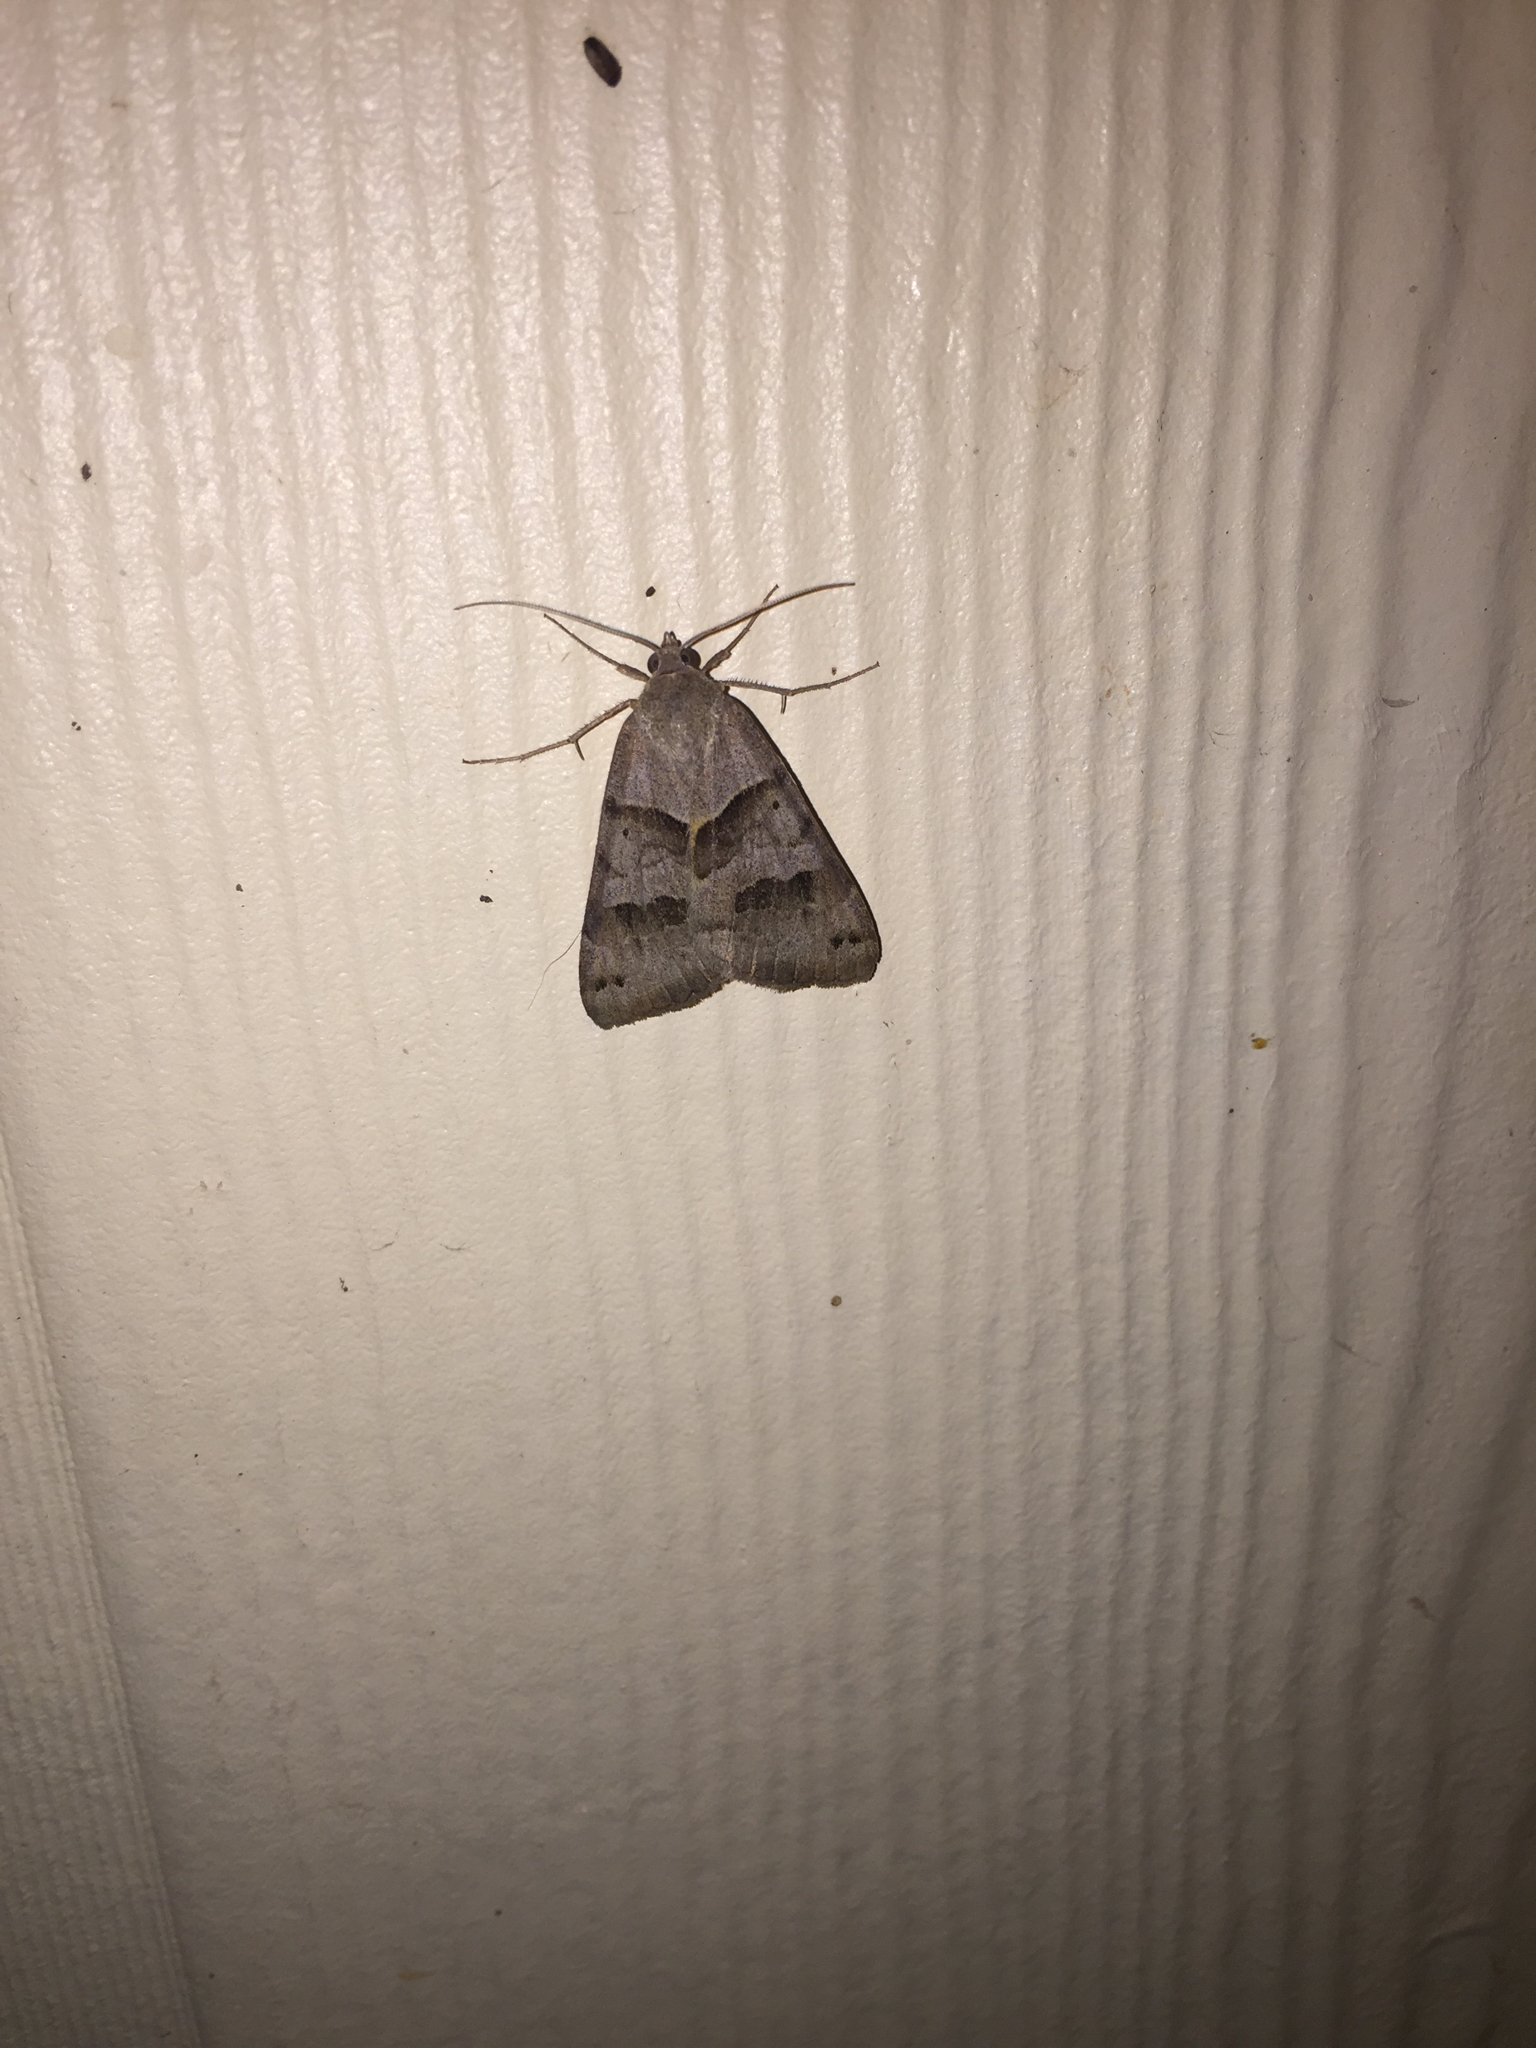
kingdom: Animalia
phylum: Arthropoda
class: Insecta
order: Lepidoptera
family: Erebidae
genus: Caenurgina
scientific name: Caenurgina erechtea
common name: Forage looper moth
